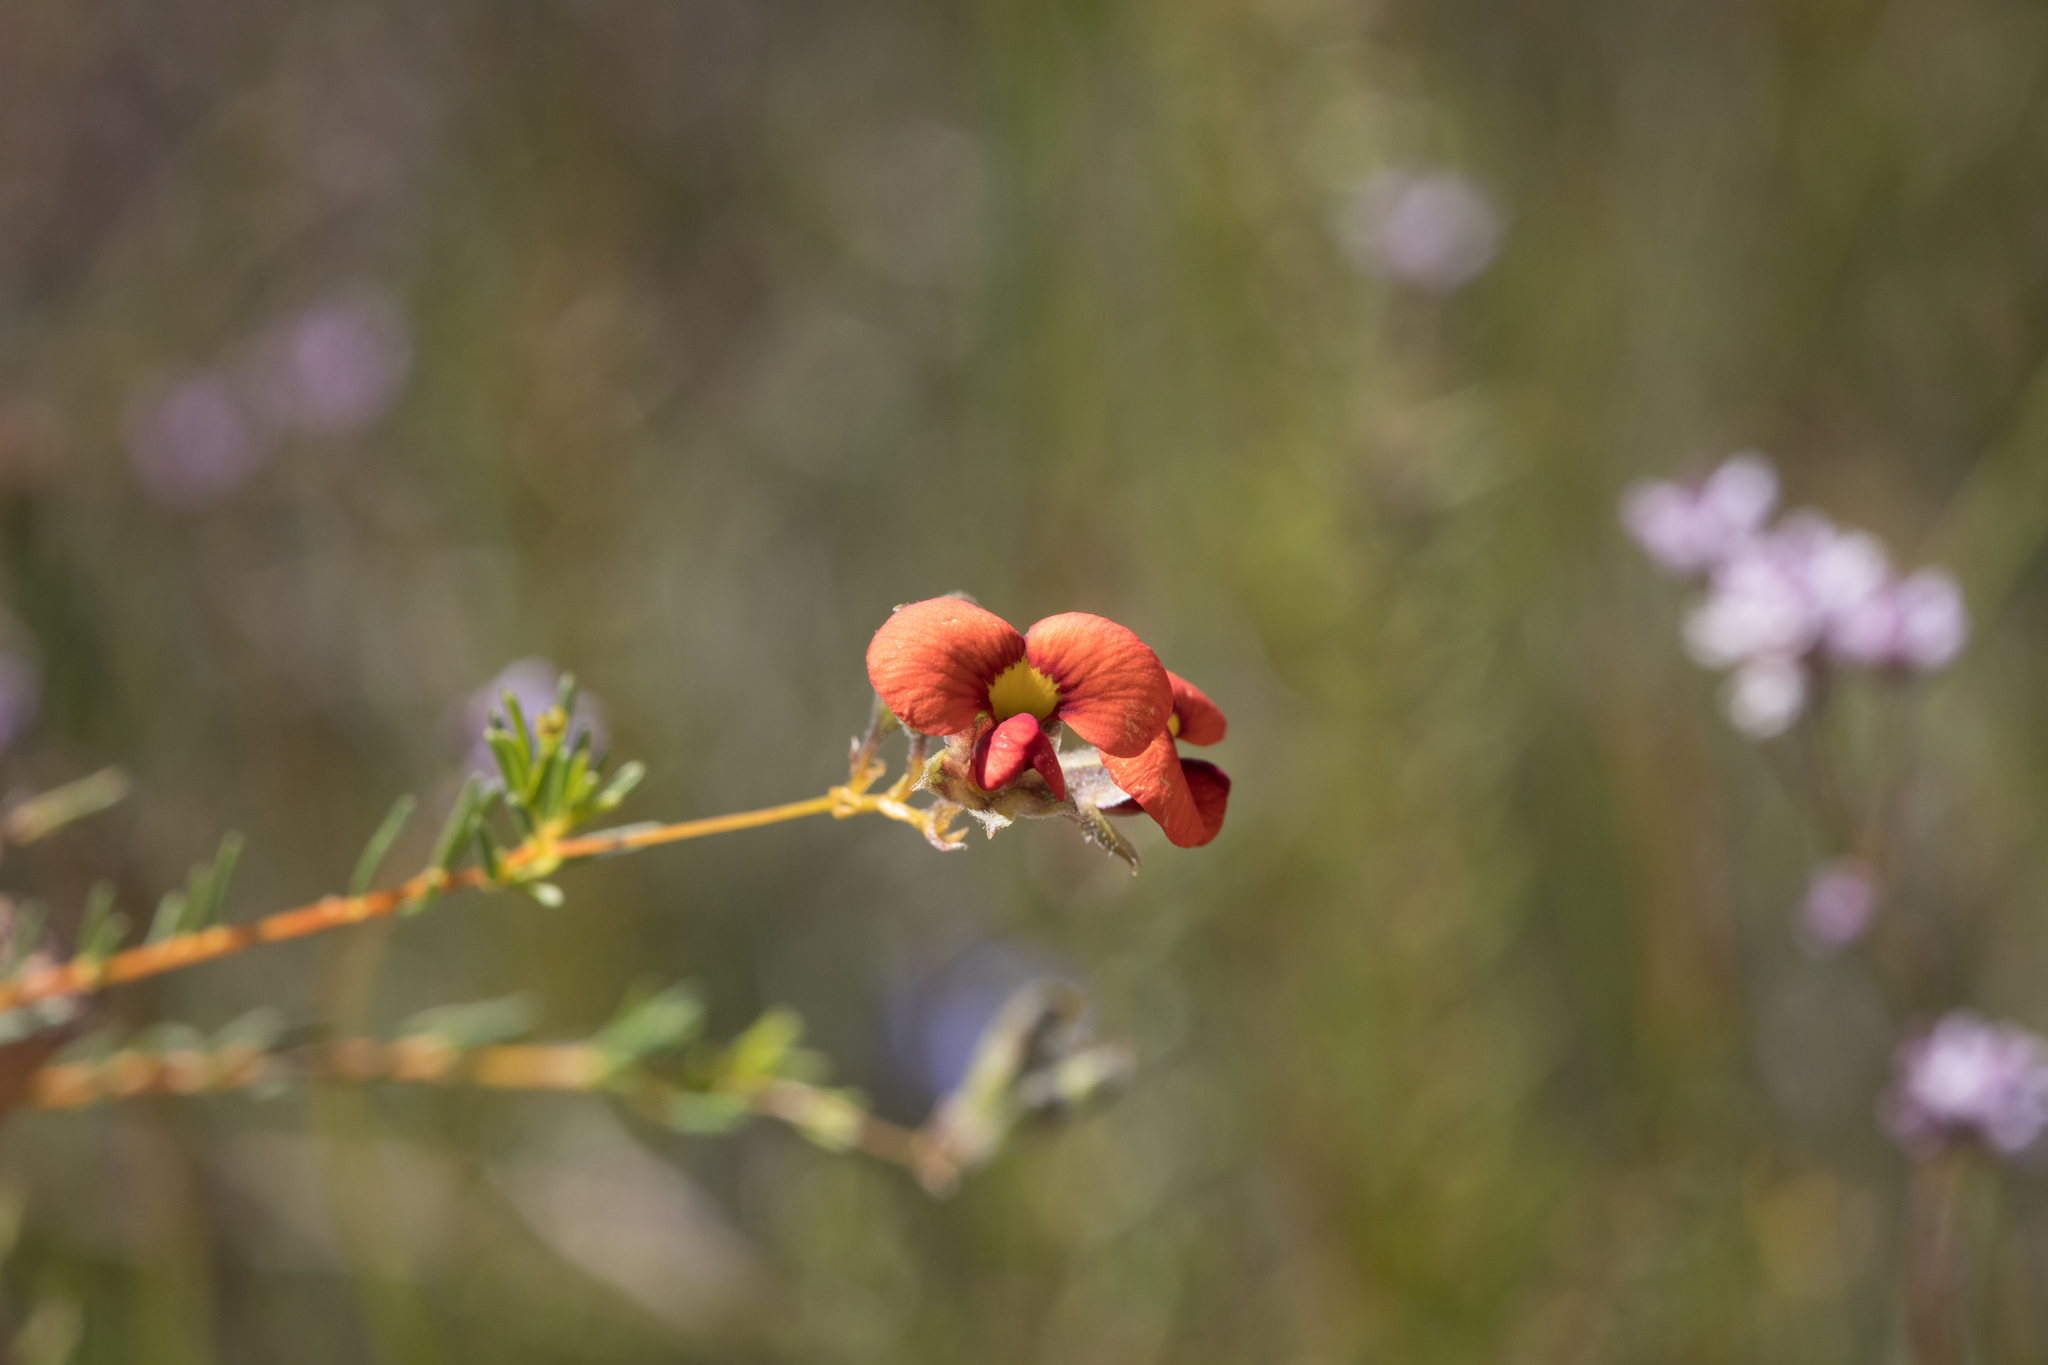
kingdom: Plantae
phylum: Tracheophyta
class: Magnoliopsida
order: Fabales
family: Fabaceae
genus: Dillwynia
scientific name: Dillwynia hispida
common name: Red parrot-pea
